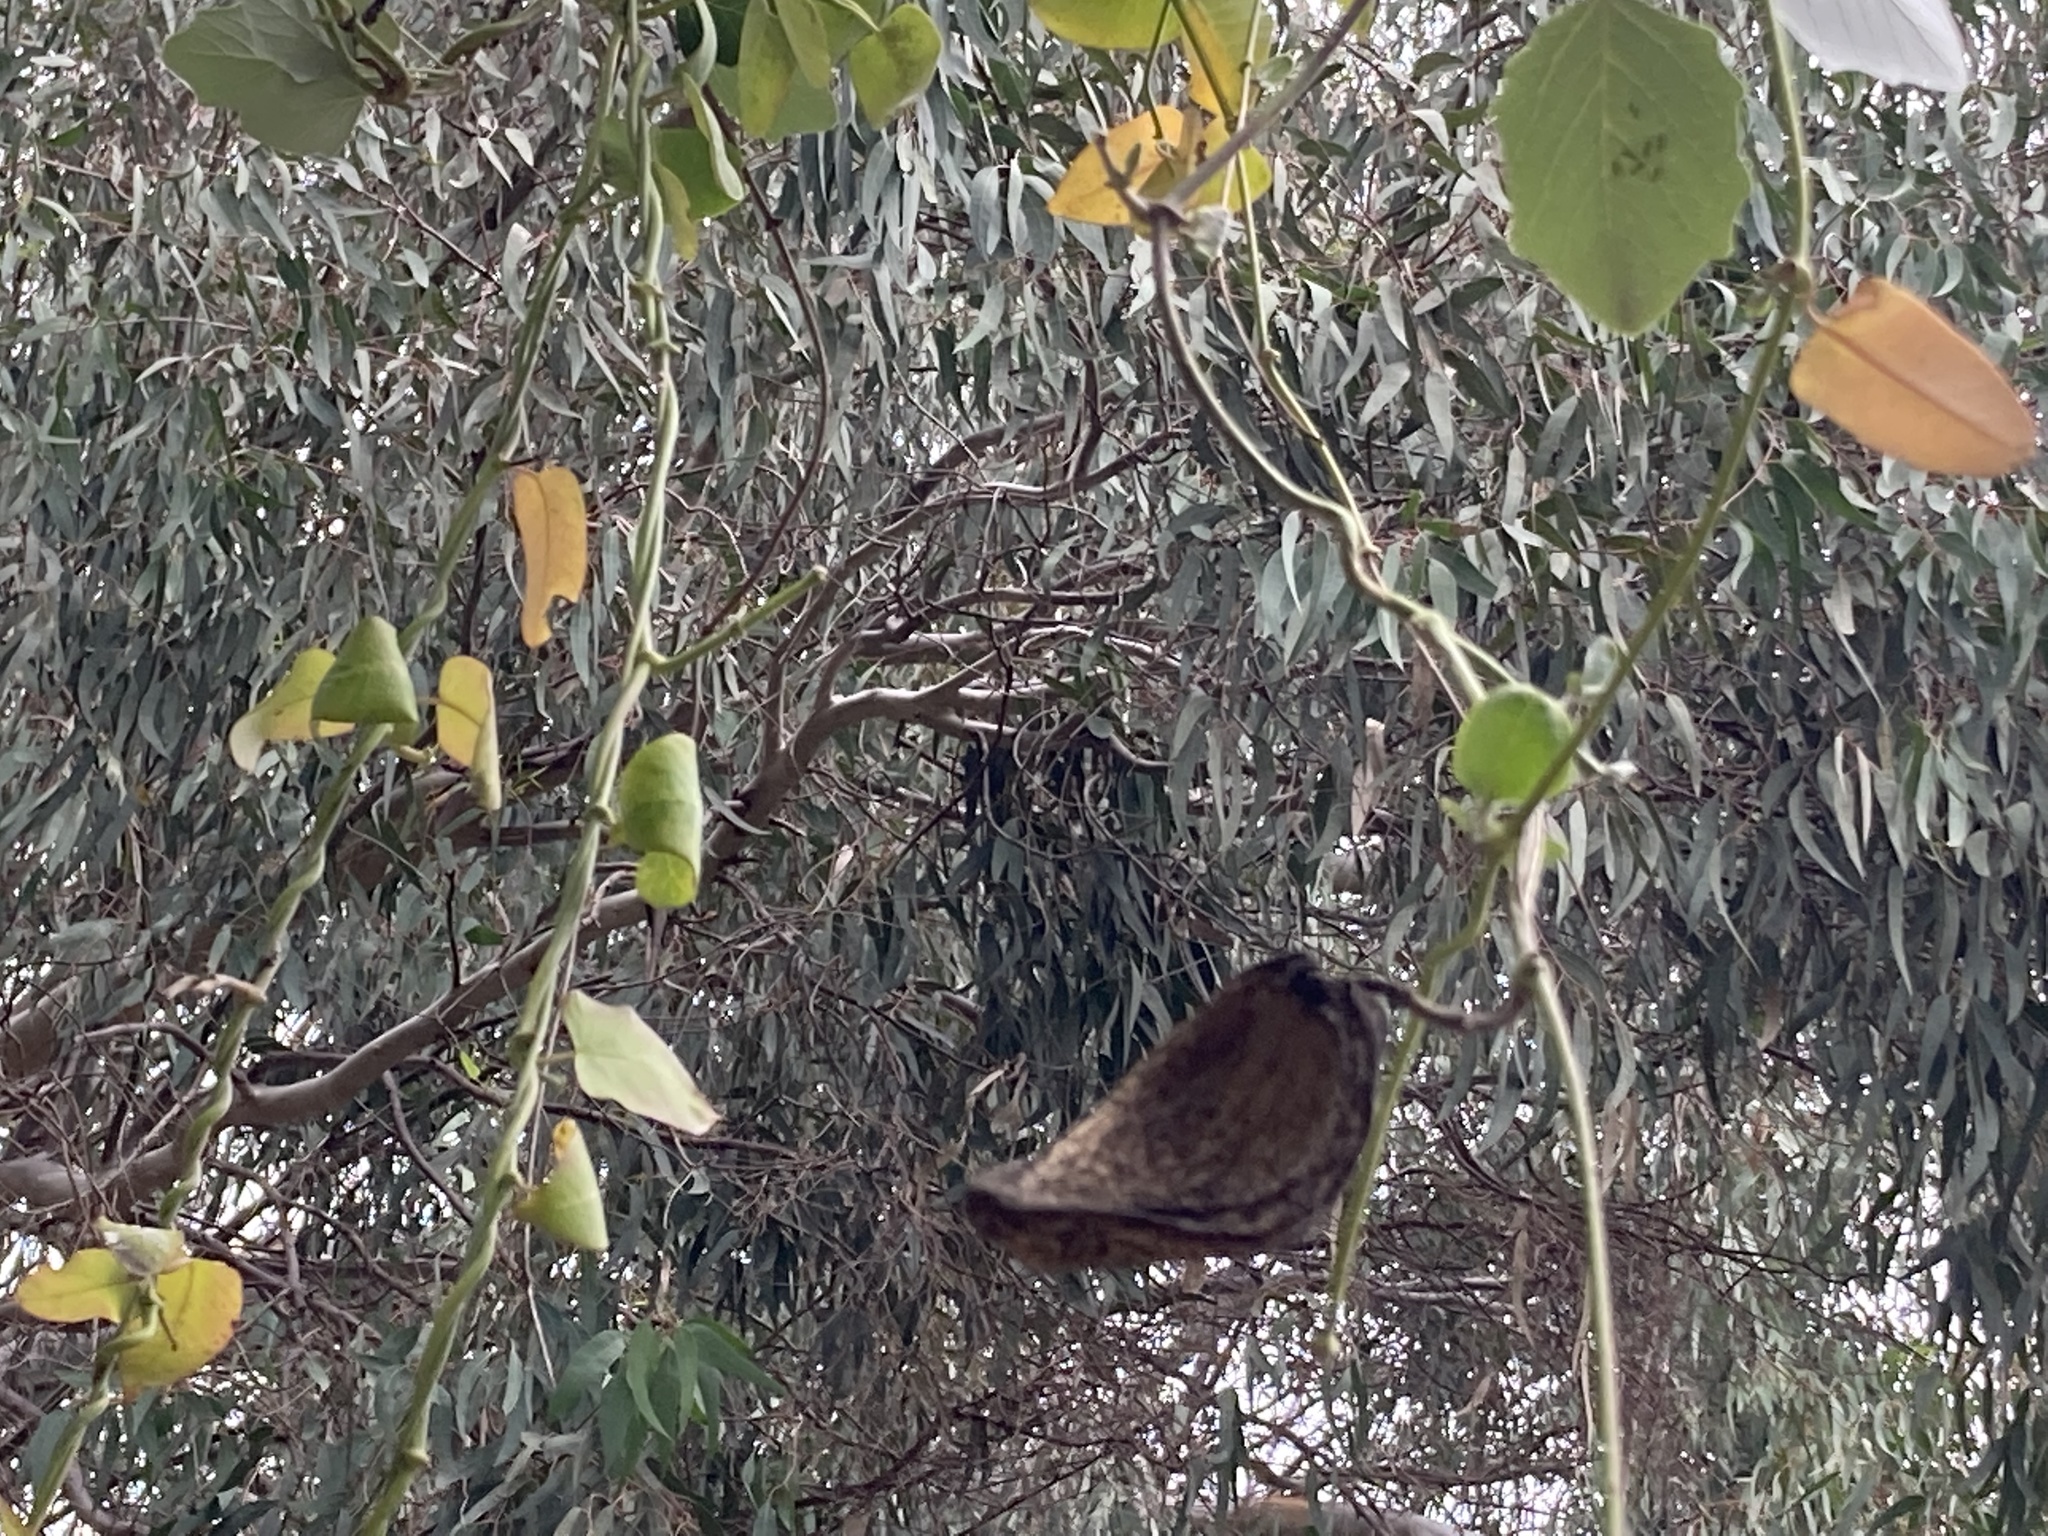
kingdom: Plantae
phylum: Tracheophyta
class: Magnoliopsida
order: Gentianales
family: Apocynaceae
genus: Araujia
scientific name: Araujia sericifera
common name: White bladderflower
